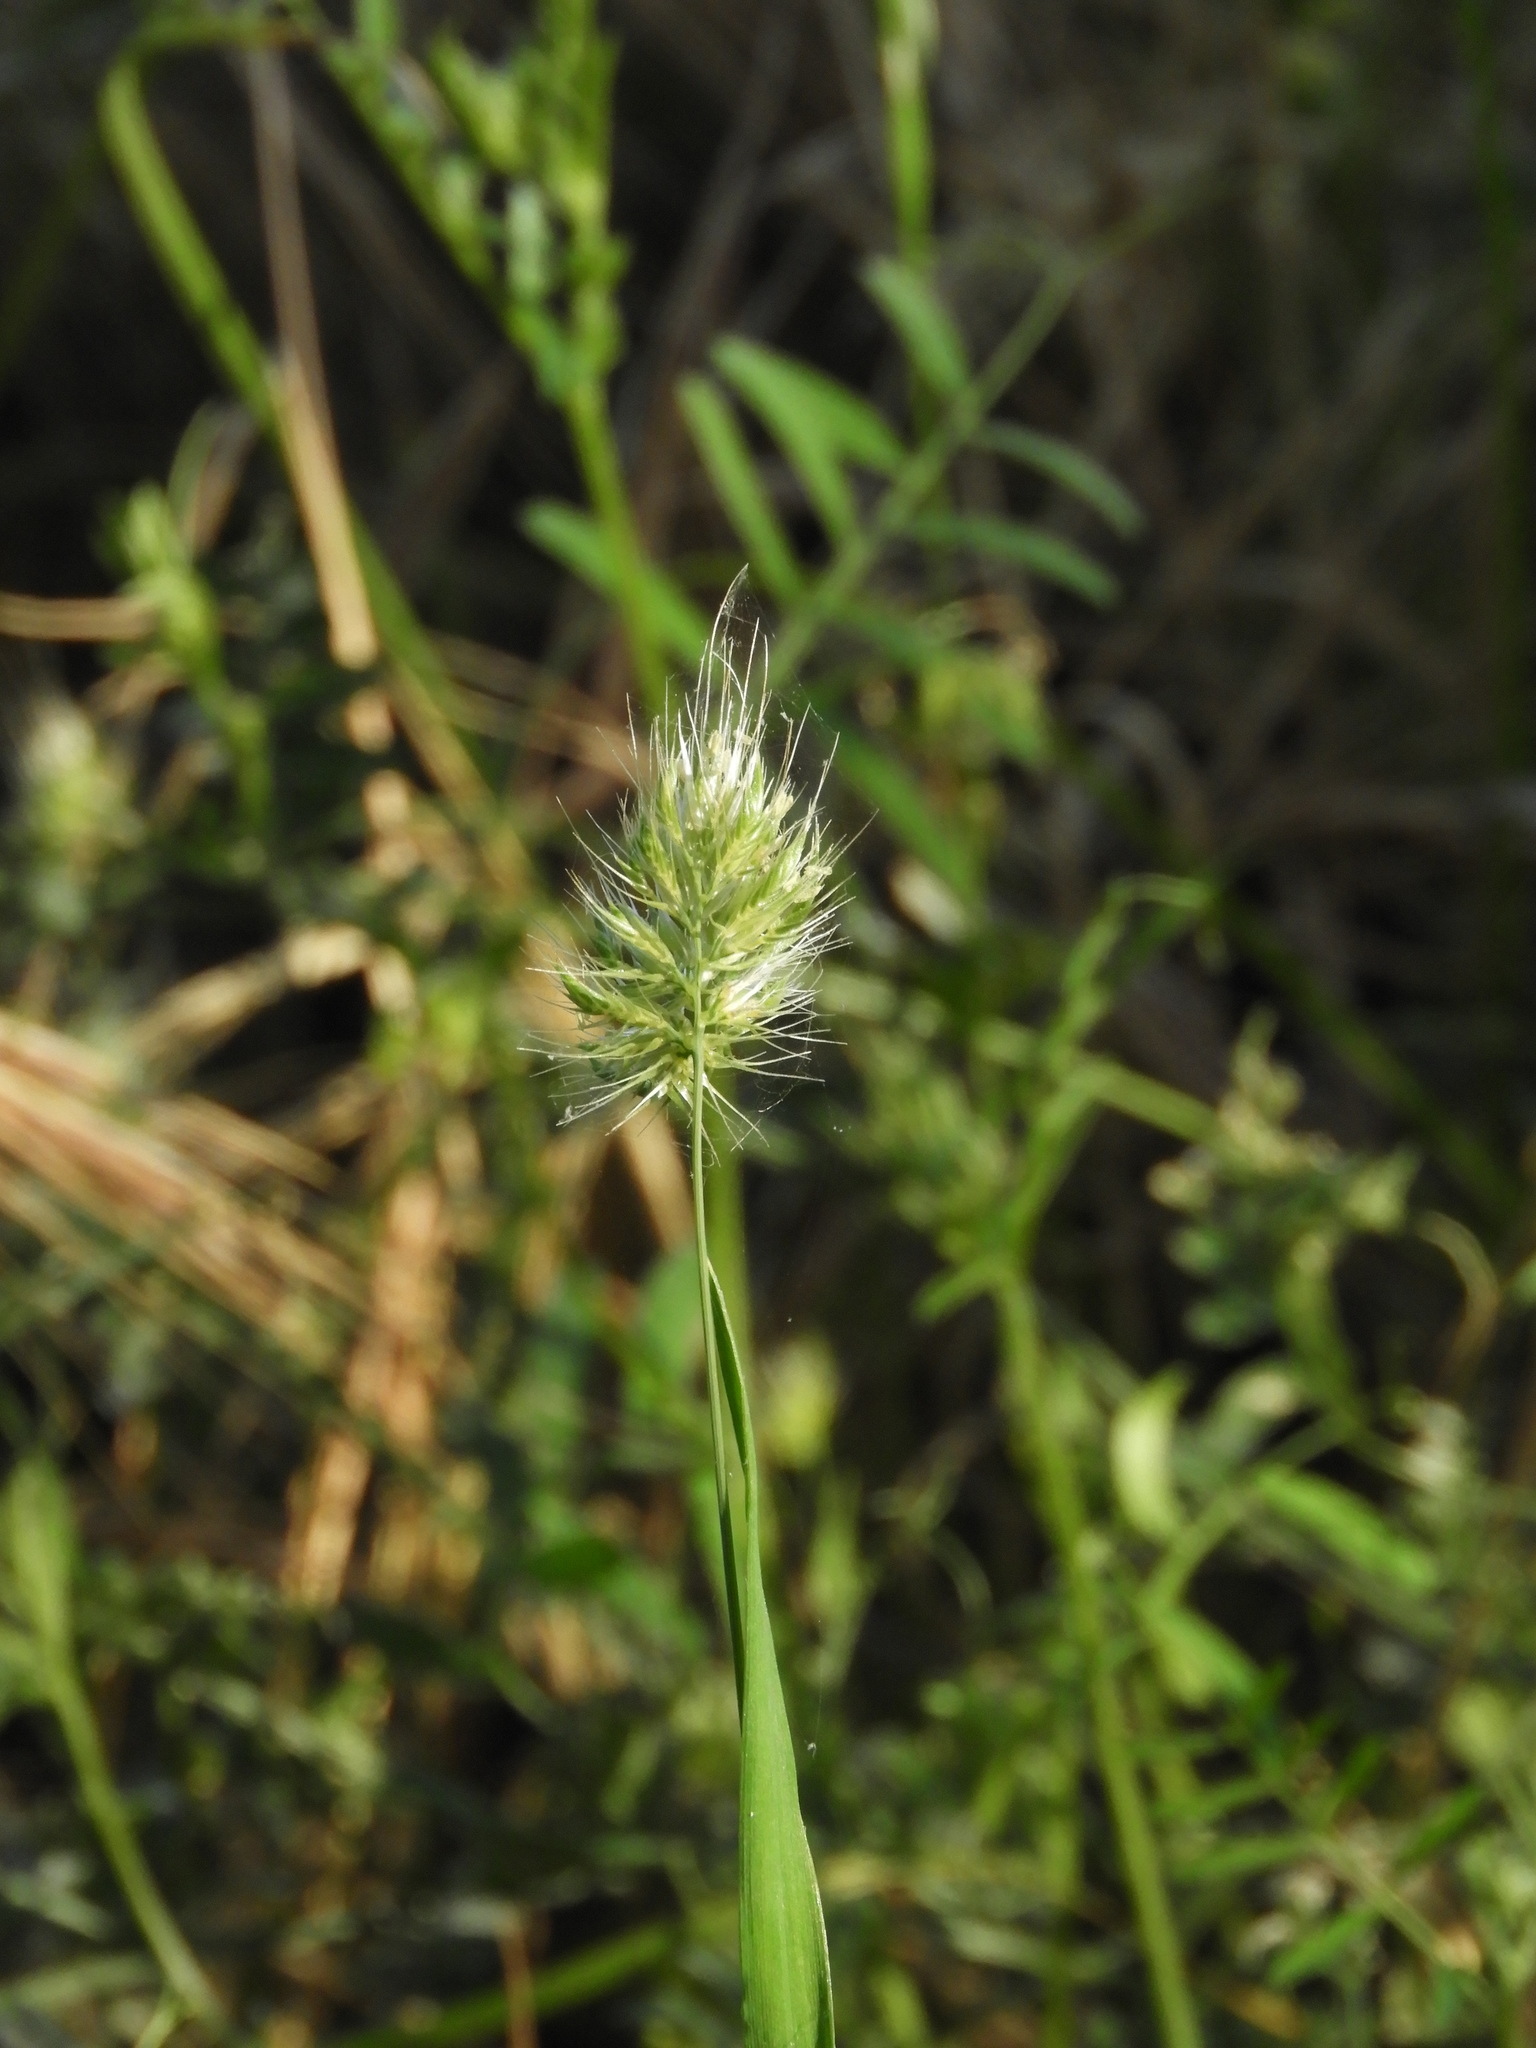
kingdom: Plantae
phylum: Tracheophyta
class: Liliopsida
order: Poales
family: Poaceae
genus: Cynosurus
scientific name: Cynosurus echinatus
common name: Rough dog's-tail
